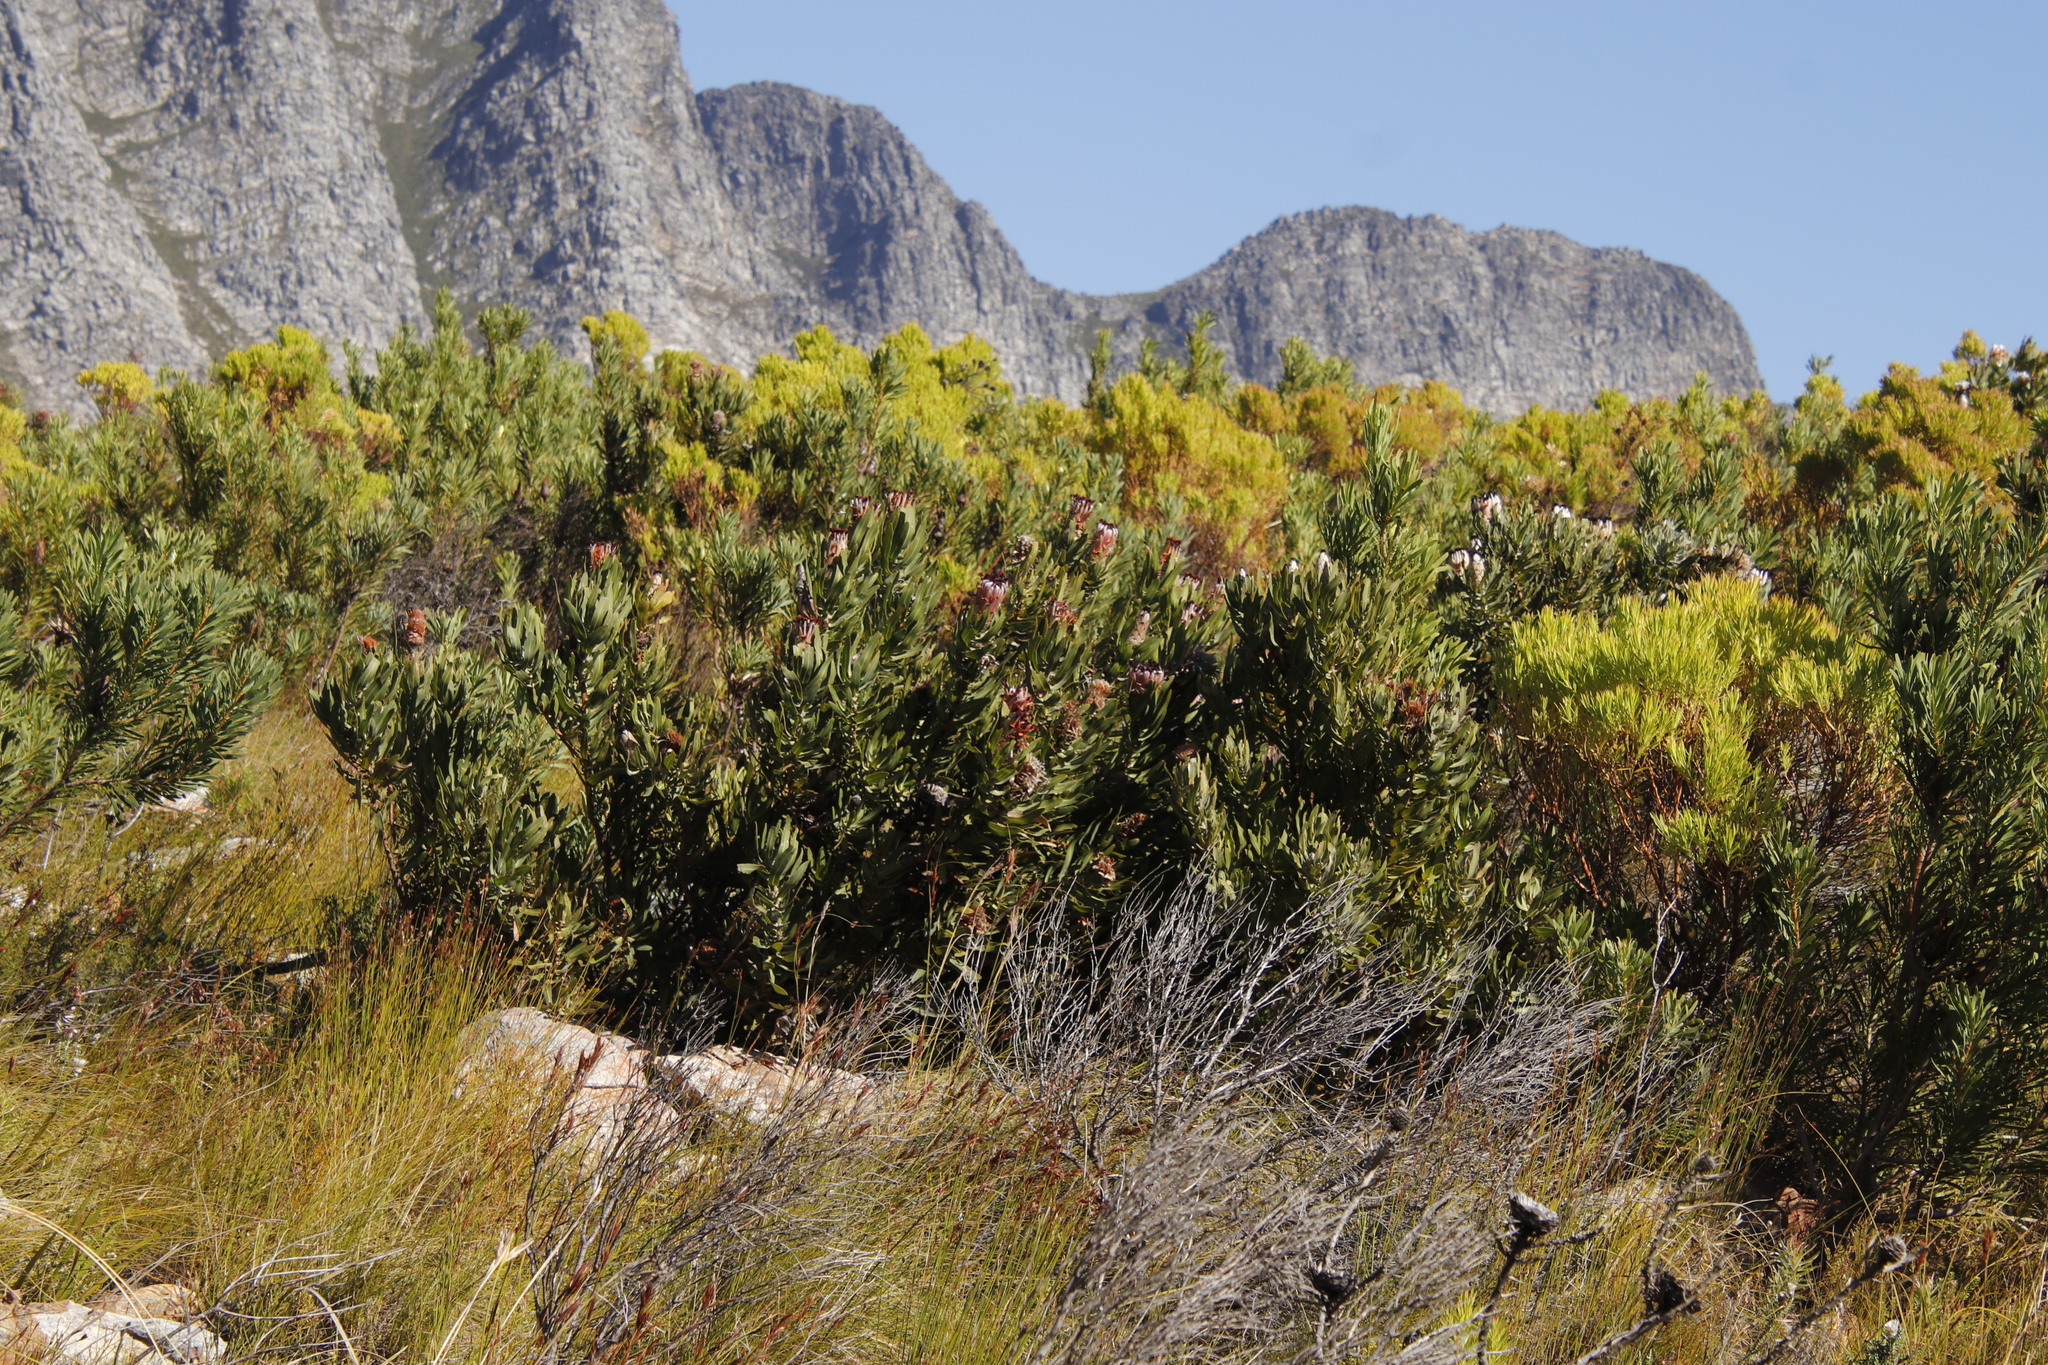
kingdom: Plantae
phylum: Tracheophyta
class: Magnoliopsida
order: Proteales
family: Proteaceae
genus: Protea
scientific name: Protea laurifolia
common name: Grey-leaf sugarbsh
